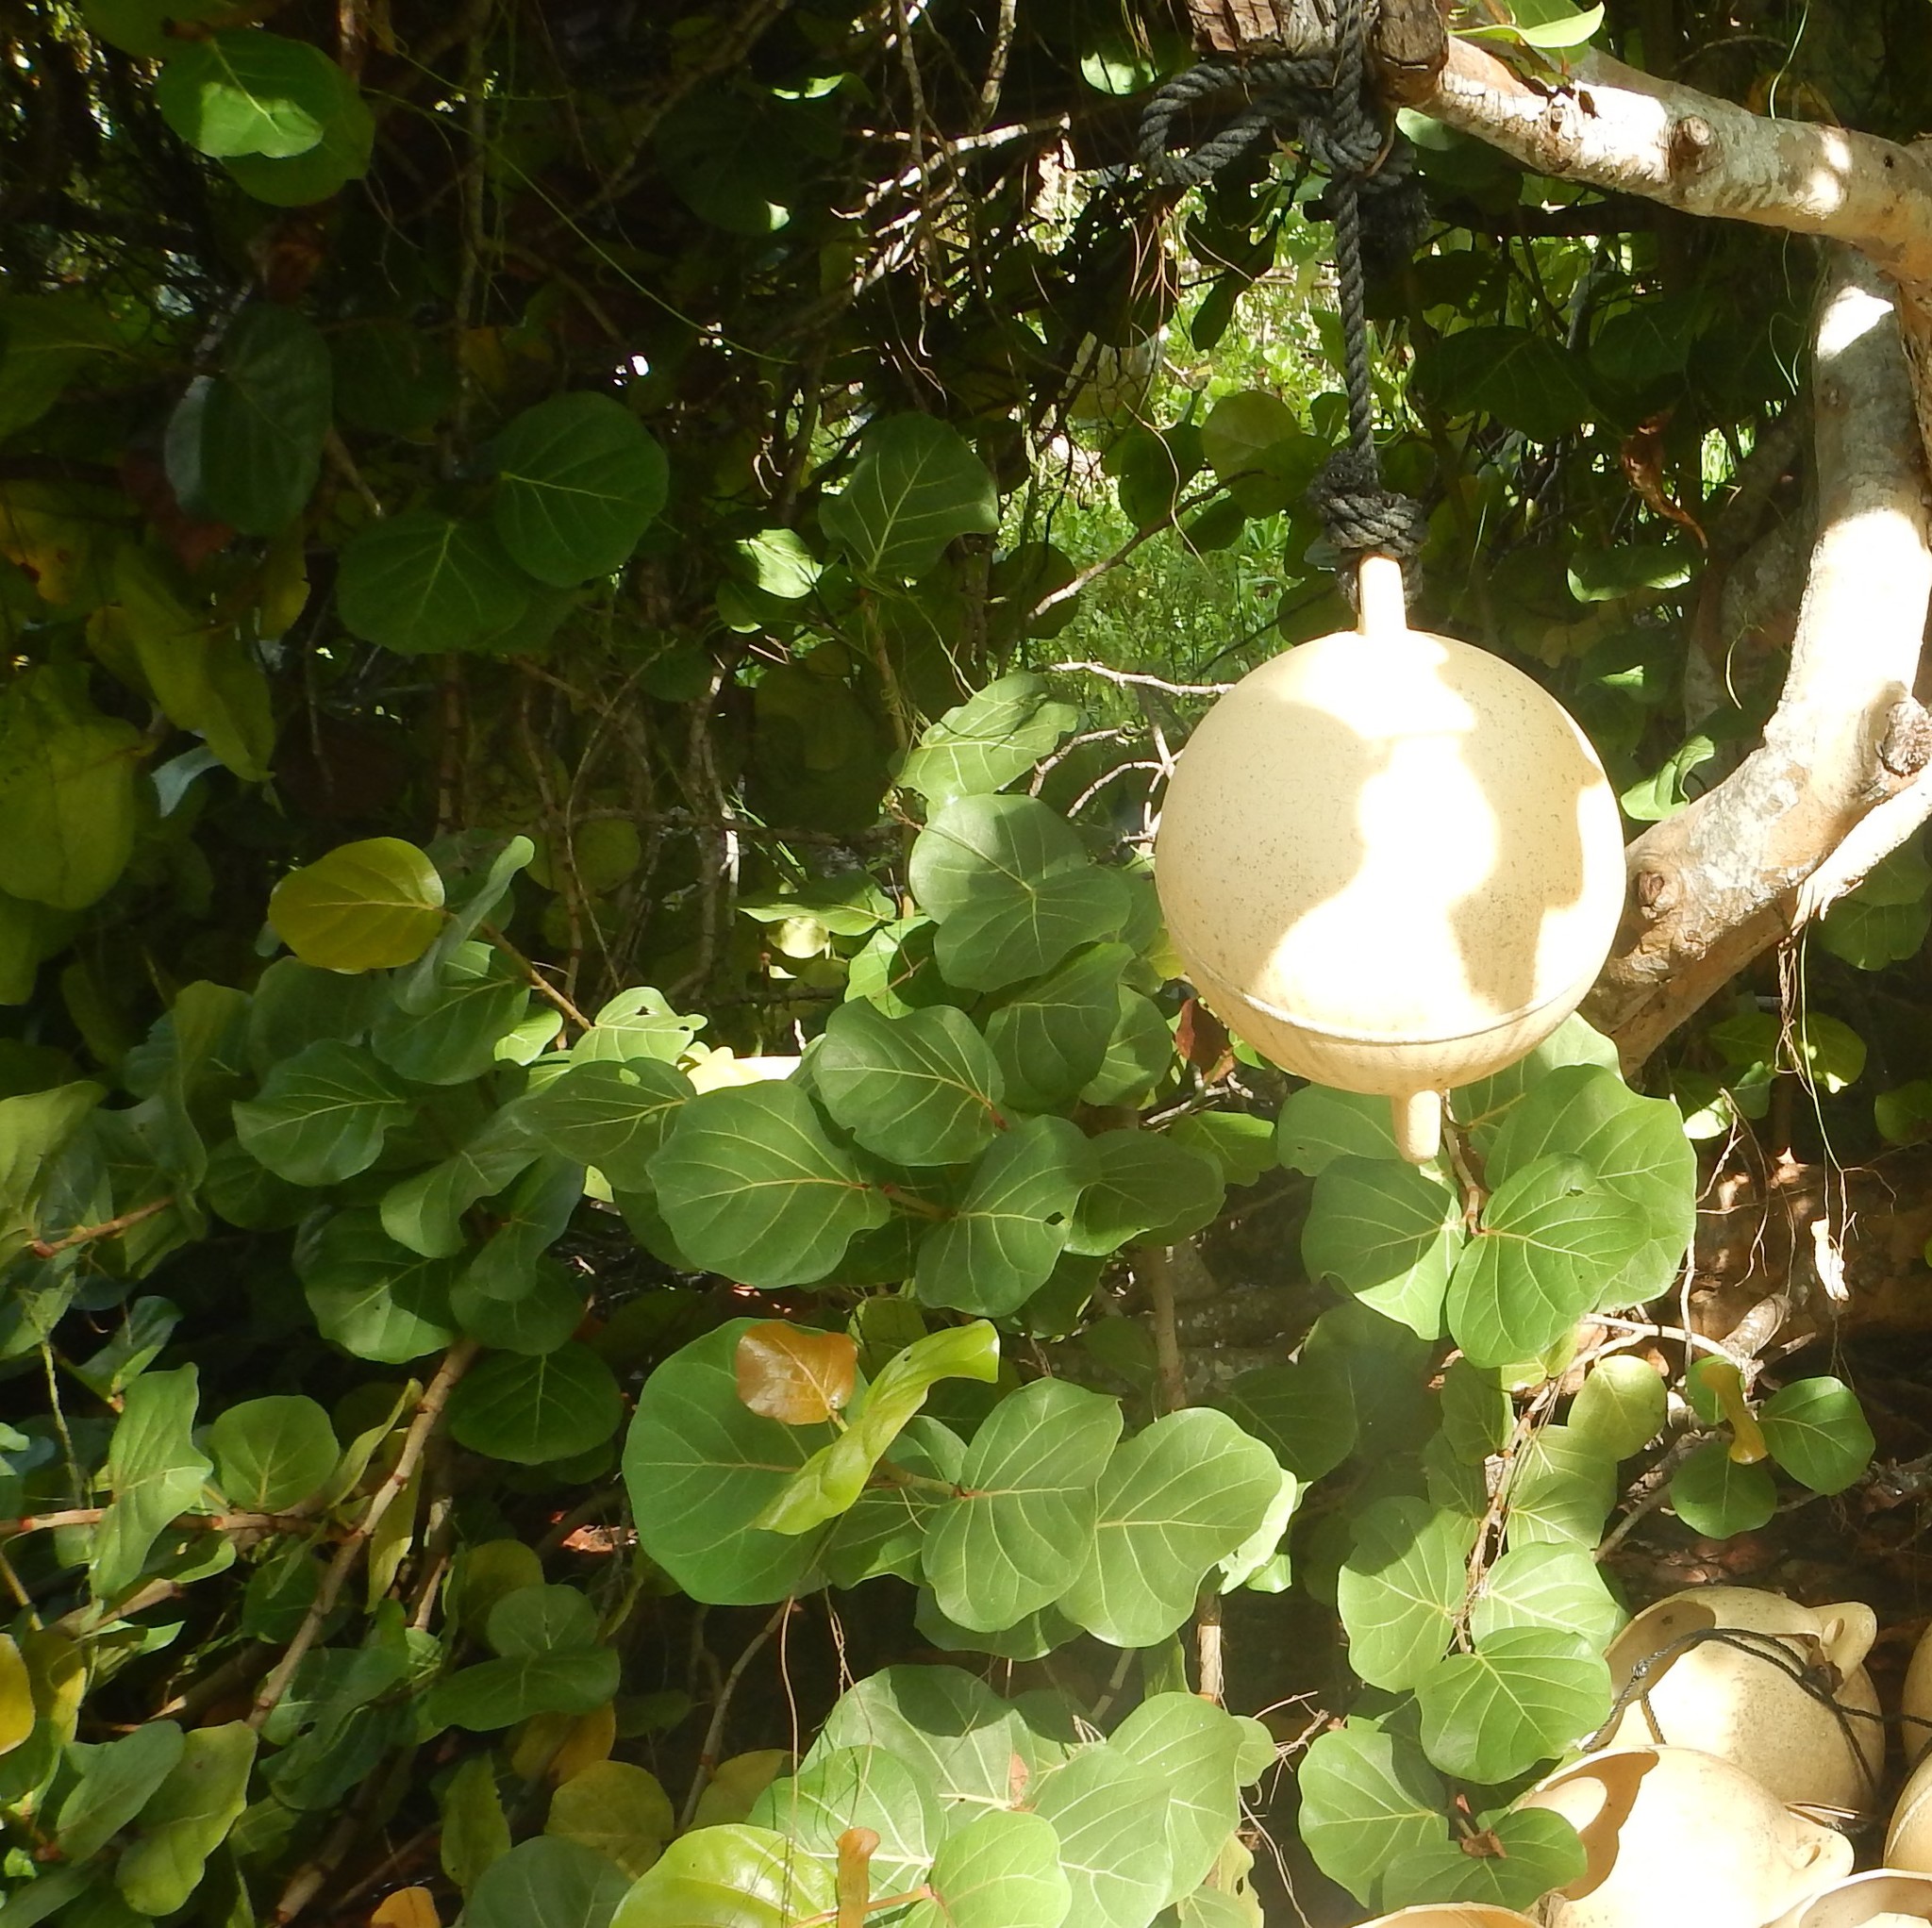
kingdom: Plantae
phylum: Tracheophyta
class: Magnoliopsida
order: Caryophyllales
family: Polygonaceae
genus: Coccoloba
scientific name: Coccoloba uvifera
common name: Seagrape
